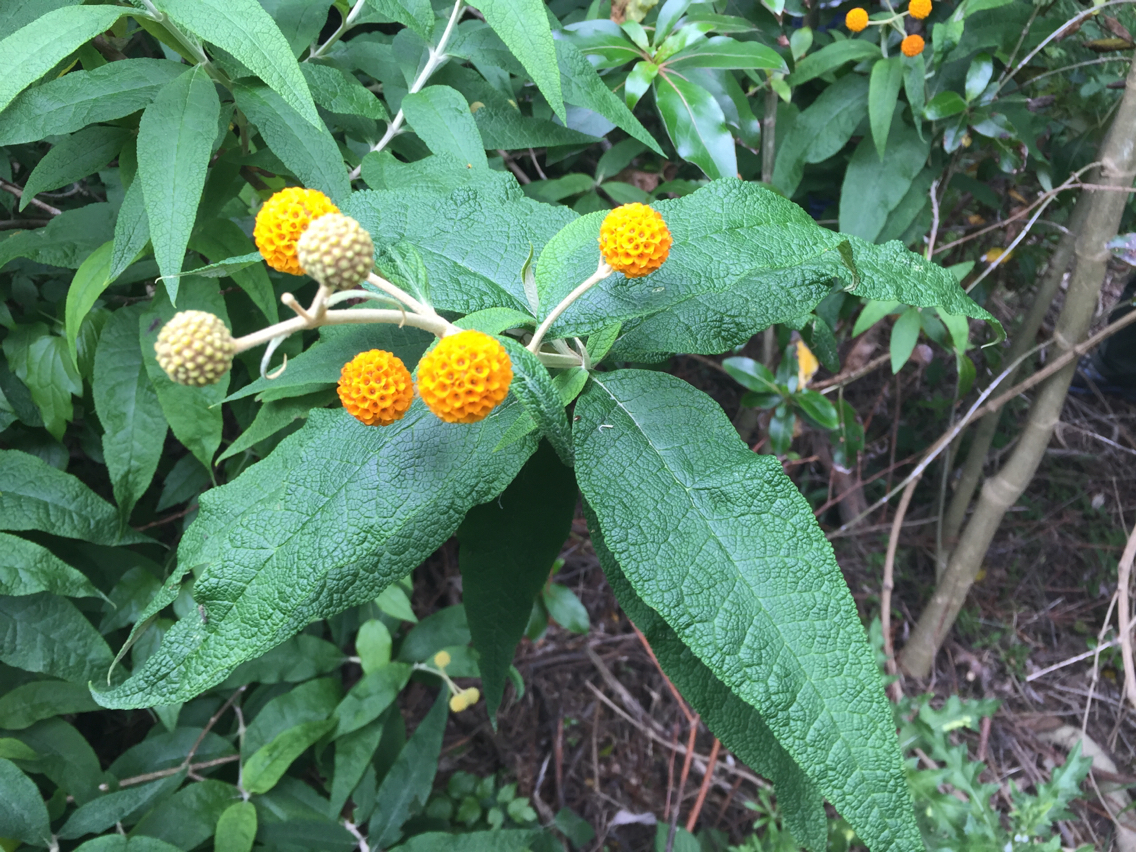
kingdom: Plantae
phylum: Tracheophyta
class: Magnoliopsida
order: Lamiales
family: Scrophulariaceae
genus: Buddleja
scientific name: Buddleja globosa
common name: Orange-ball-tree
